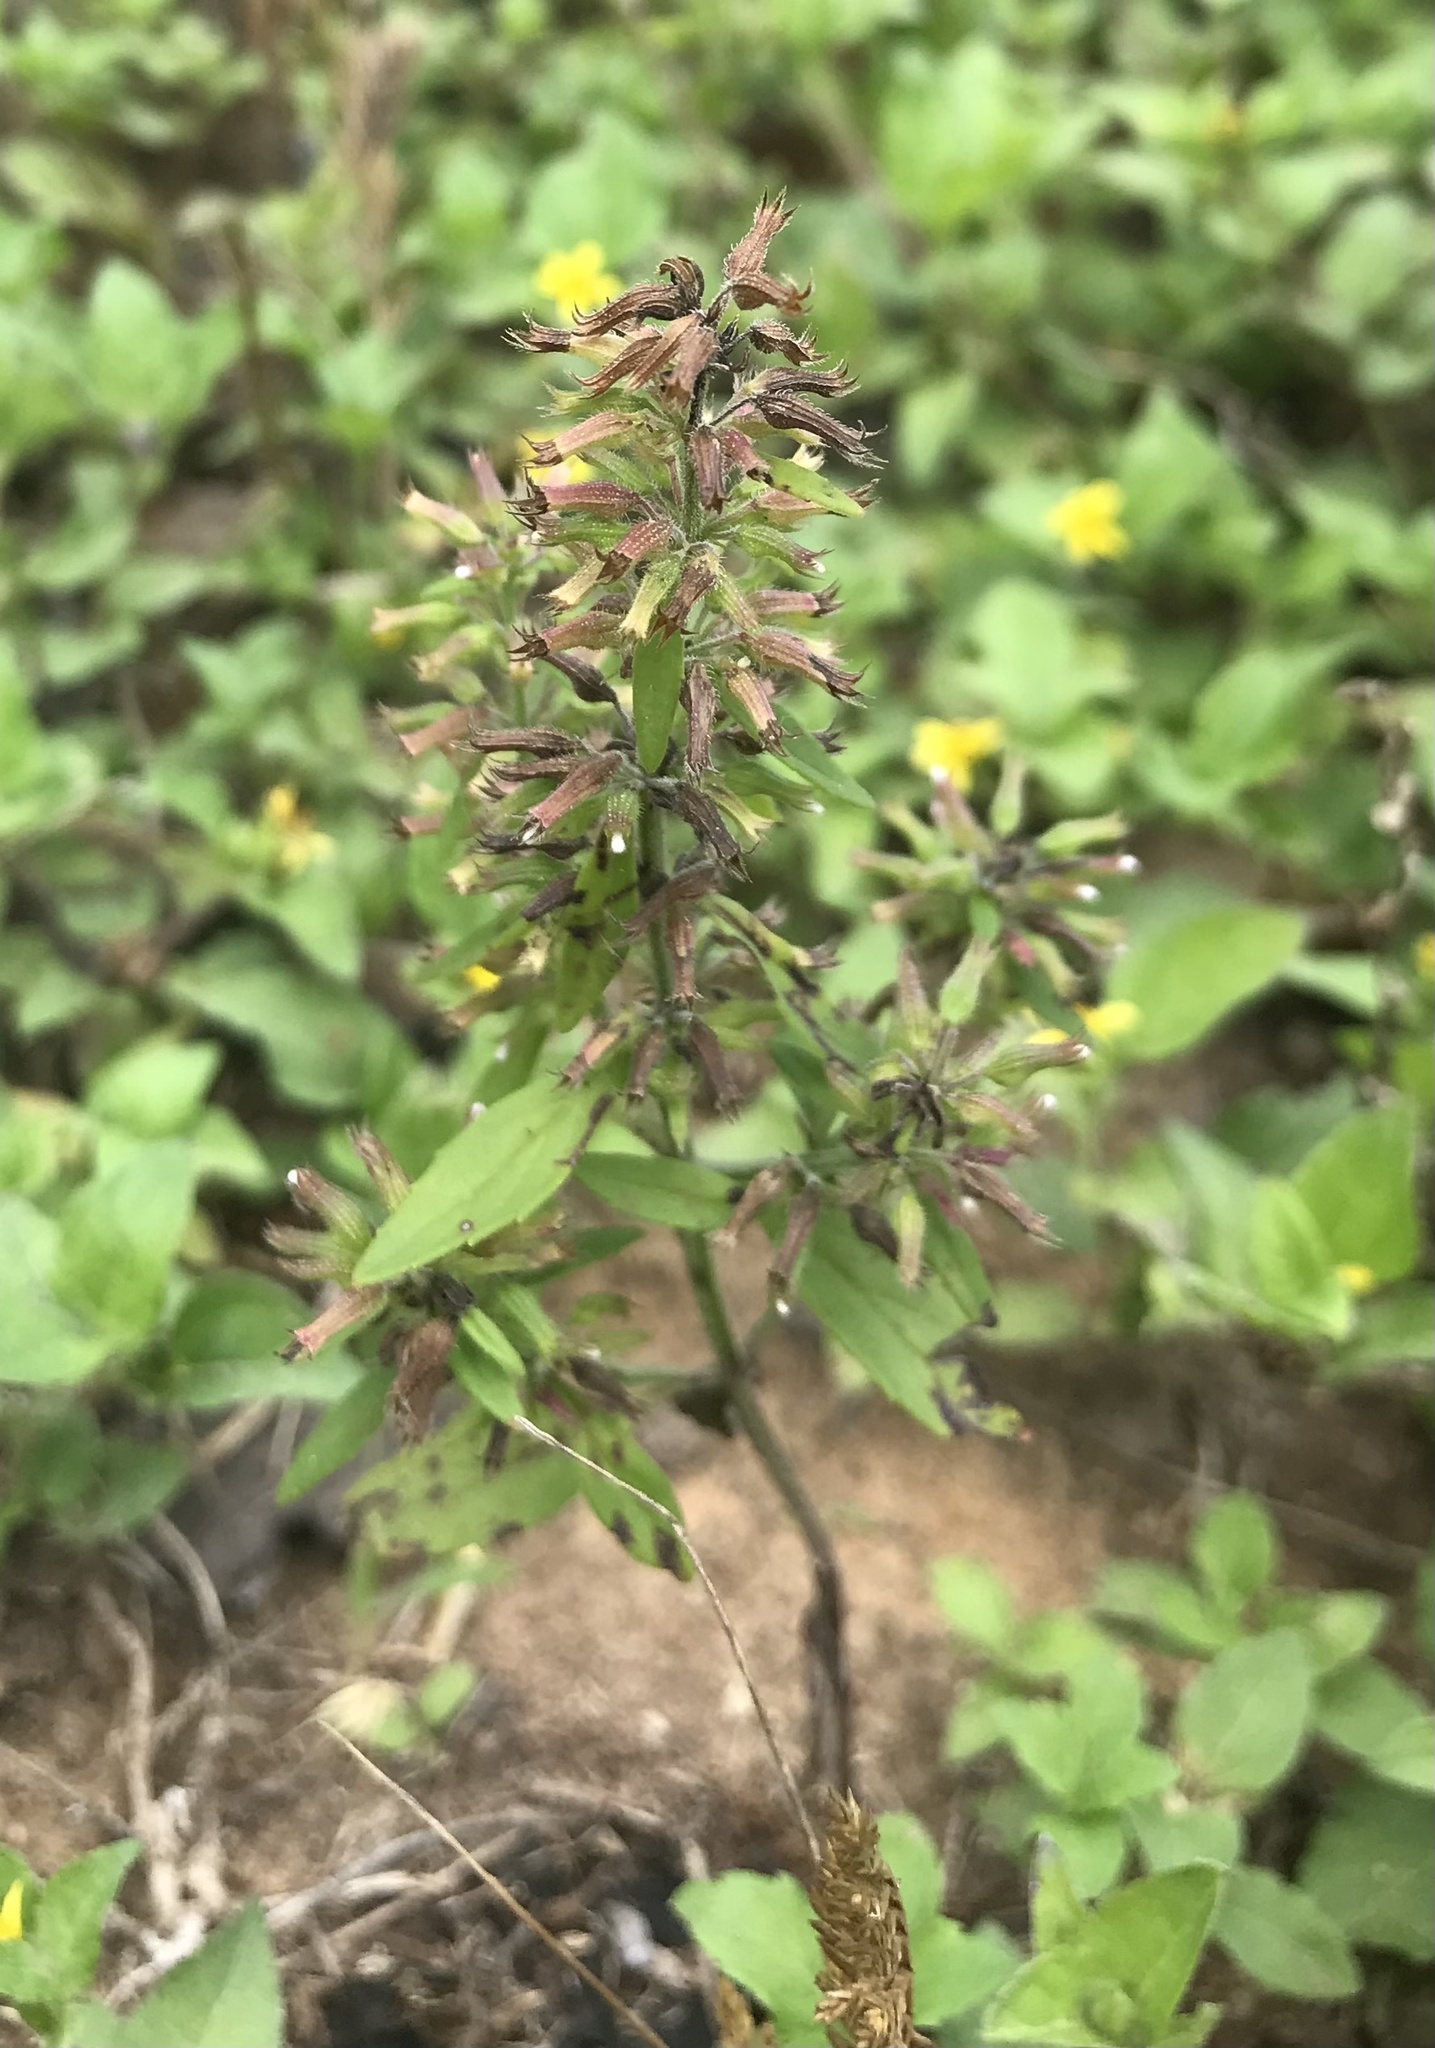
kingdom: Plantae
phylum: Tracheophyta
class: Magnoliopsida
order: Lamiales
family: Lamiaceae
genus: Hedeoma
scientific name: Hedeoma acinoides
